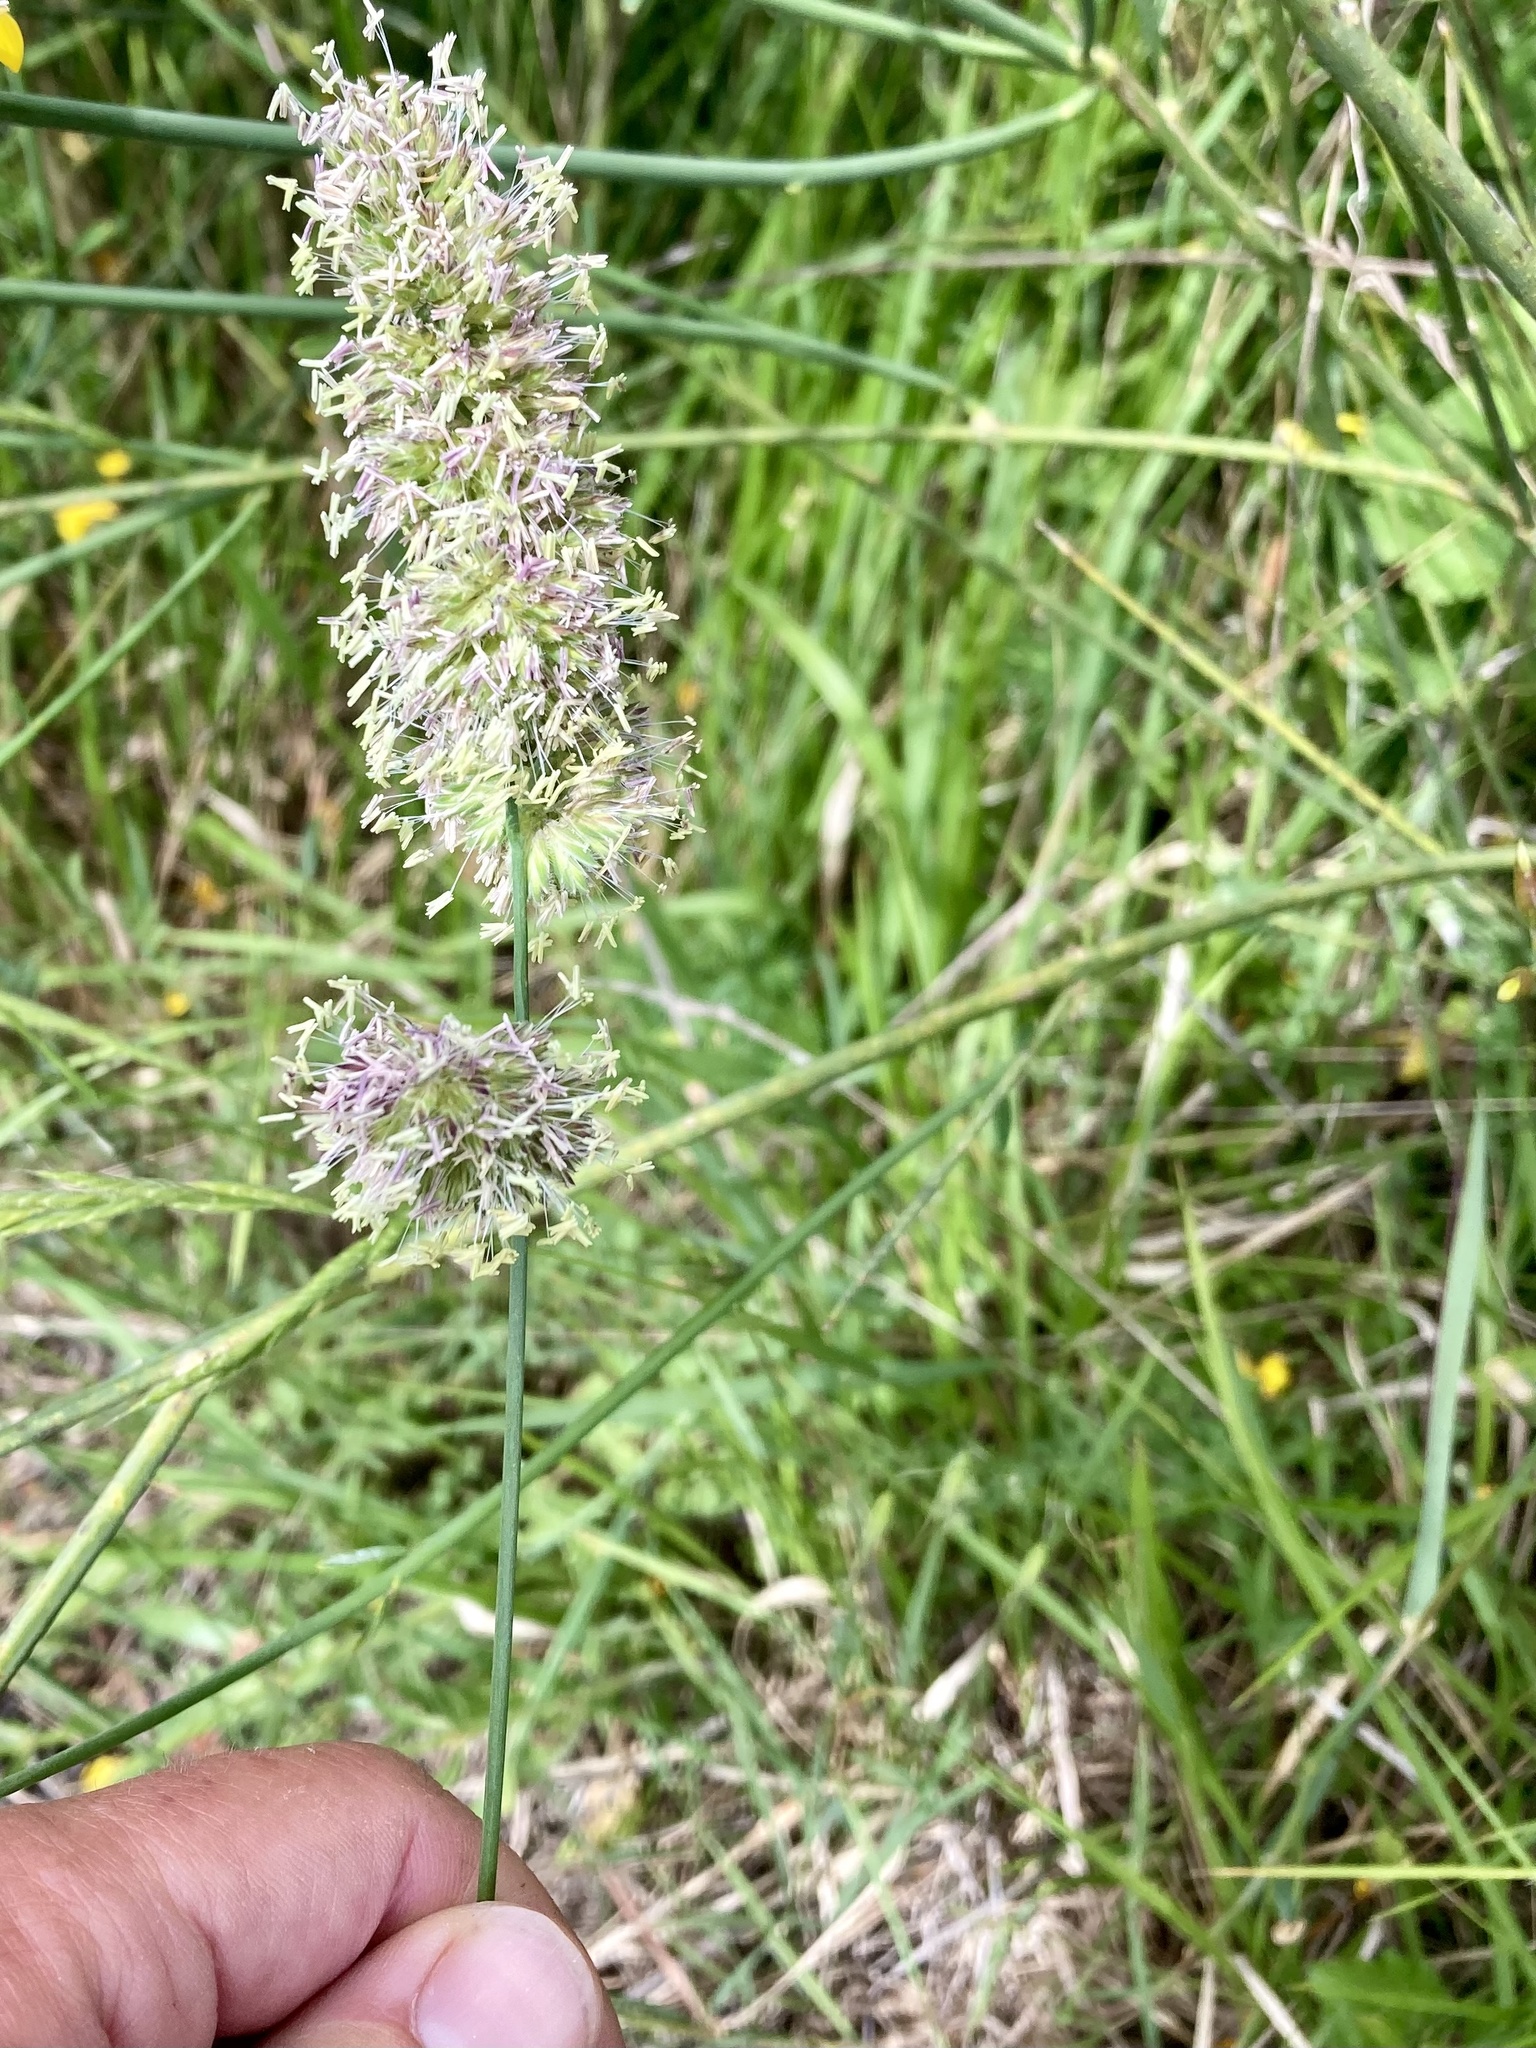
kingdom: Plantae
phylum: Tracheophyta
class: Liliopsida
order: Poales
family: Poaceae
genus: Dactylis
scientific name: Dactylis glomerata
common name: Orchardgrass
